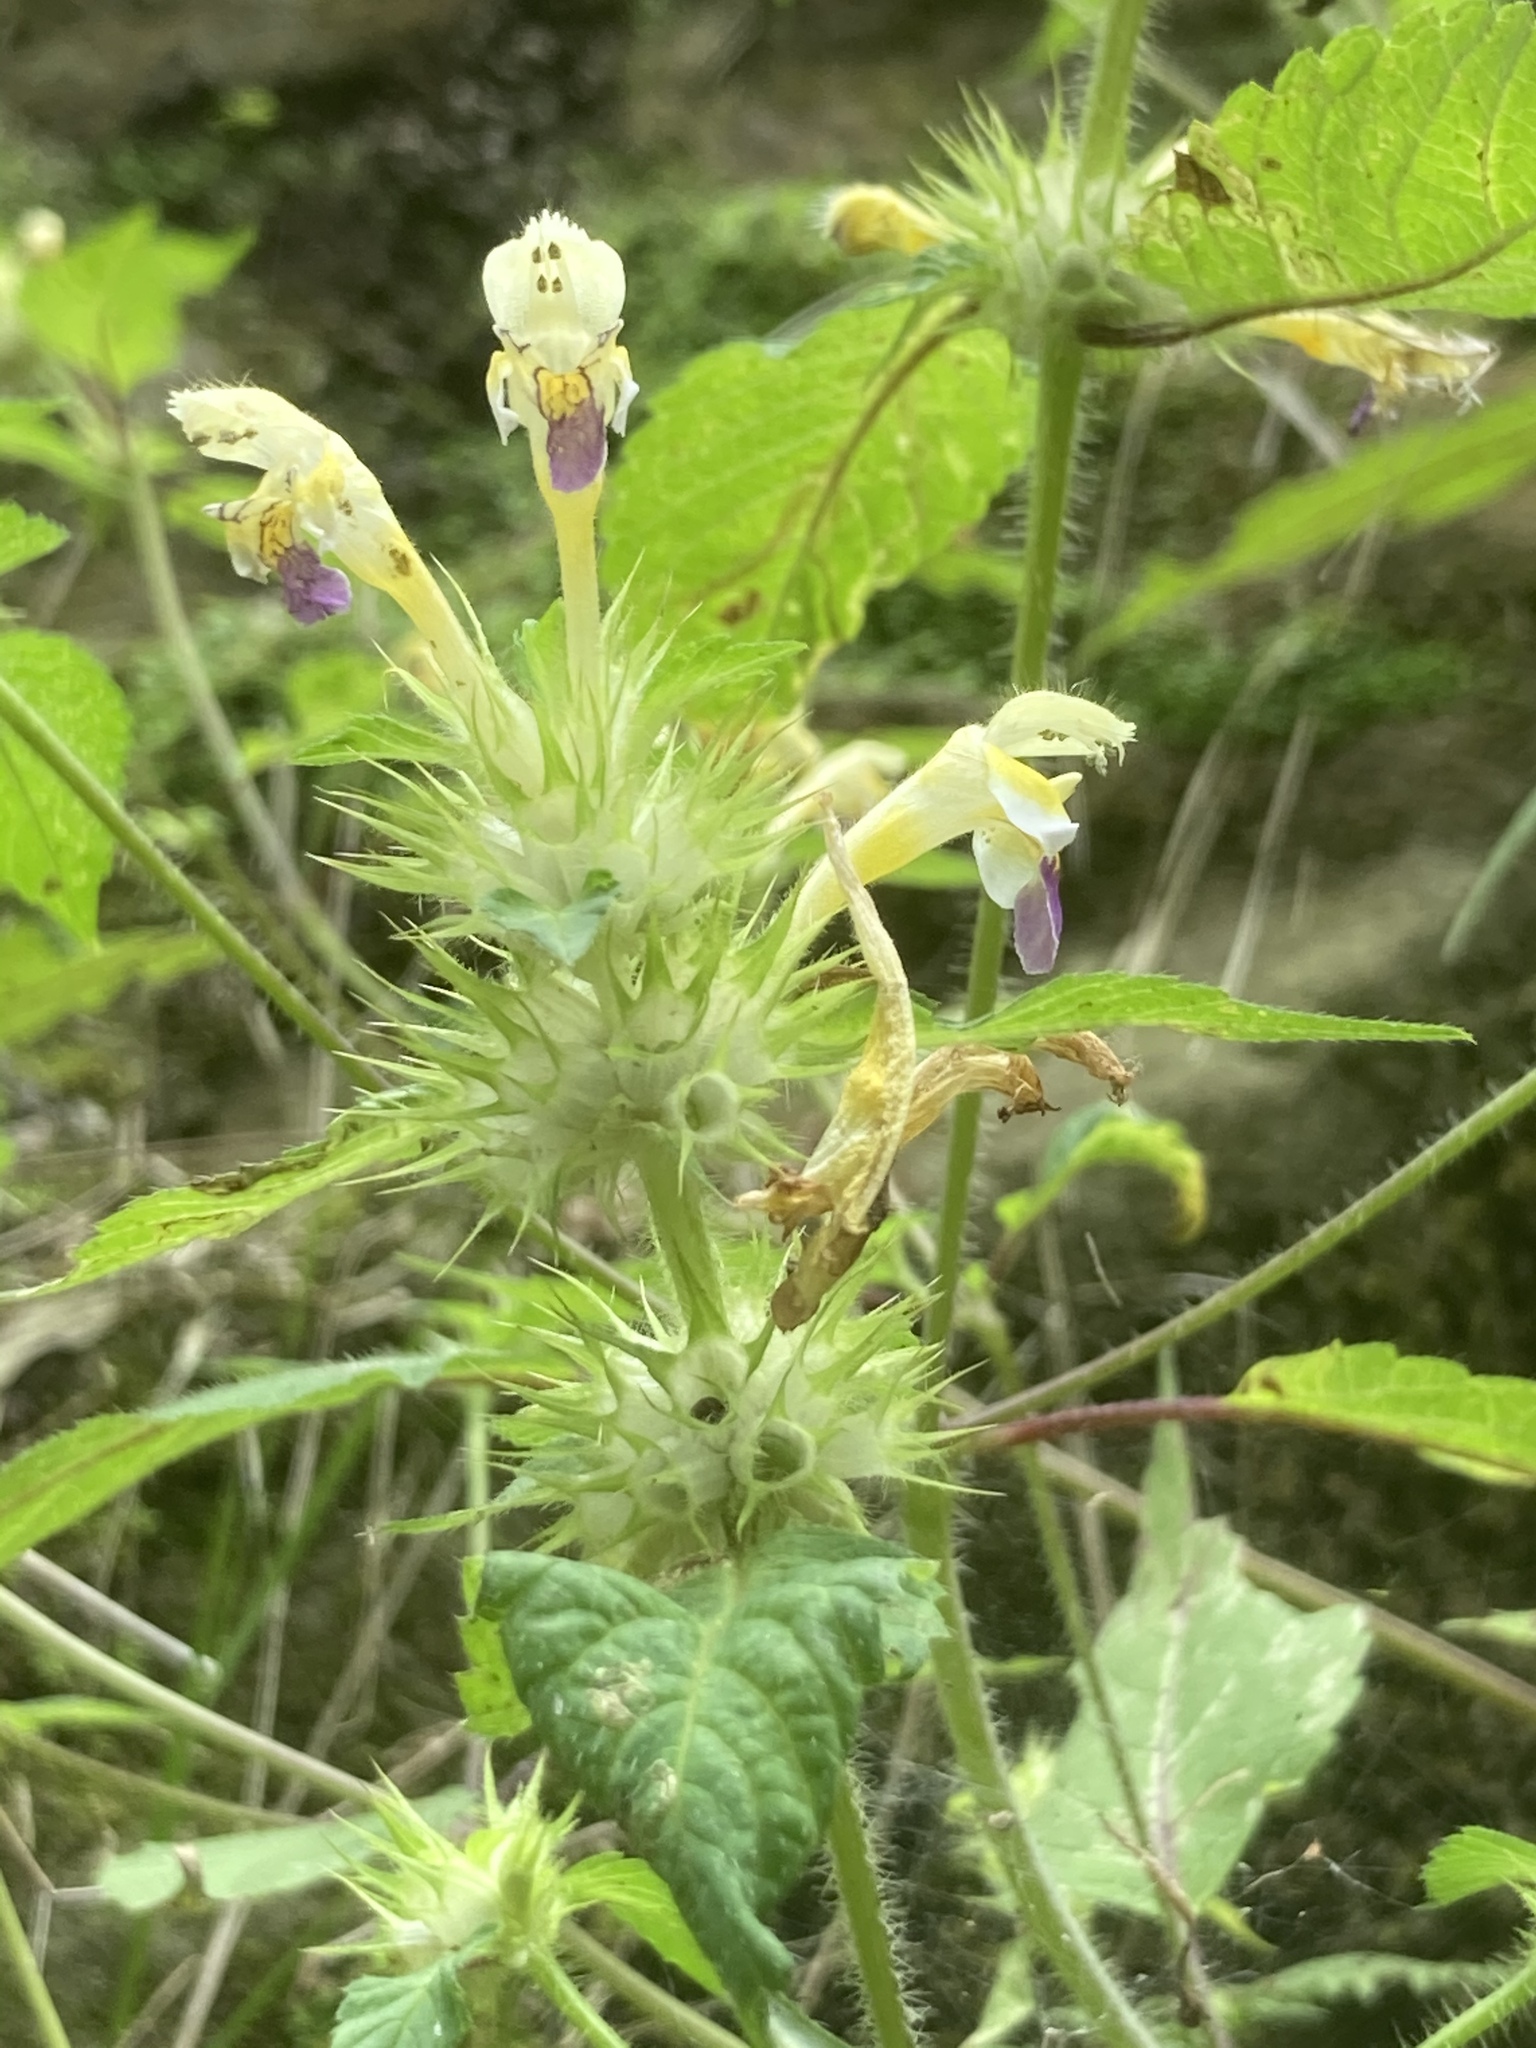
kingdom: Plantae
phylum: Tracheophyta
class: Magnoliopsida
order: Lamiales
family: Lamiaceae
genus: Galeopsis
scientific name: Galeopsis speciosa
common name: Large-flowered hemp-nettle
